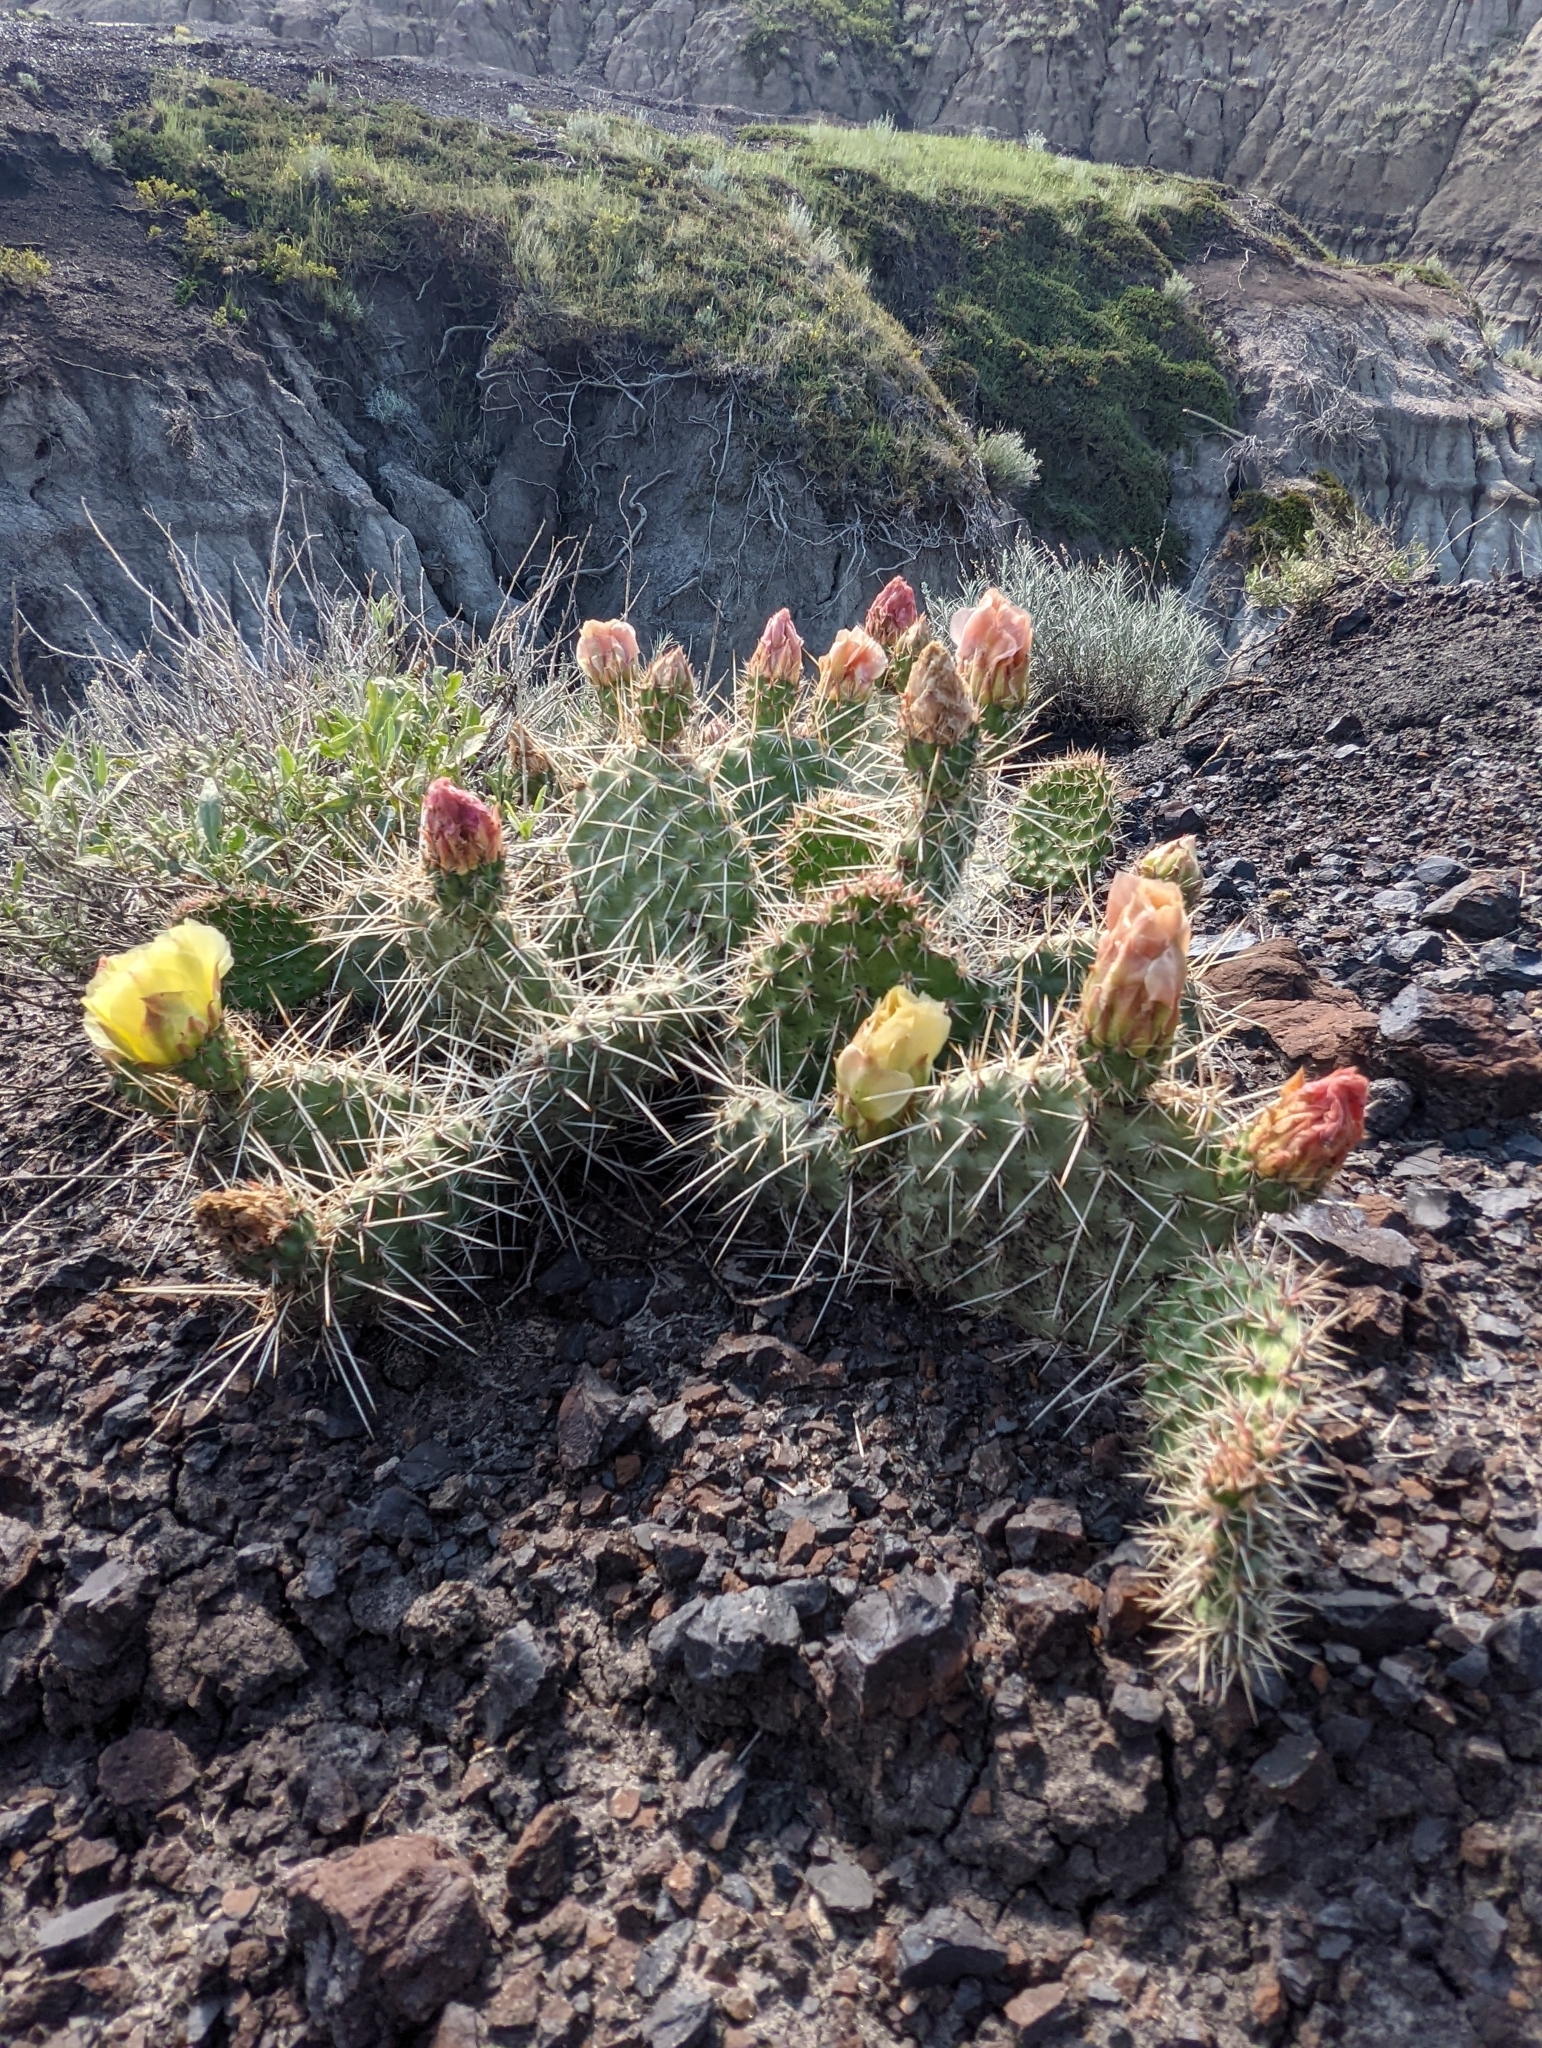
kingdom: Plantae
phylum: Tracheophyta
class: Magnoliopsida
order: Caryophyllales
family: Cactaceae
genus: Opuntia
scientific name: Opuntia polyacantha
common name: Plains prickly-pear
